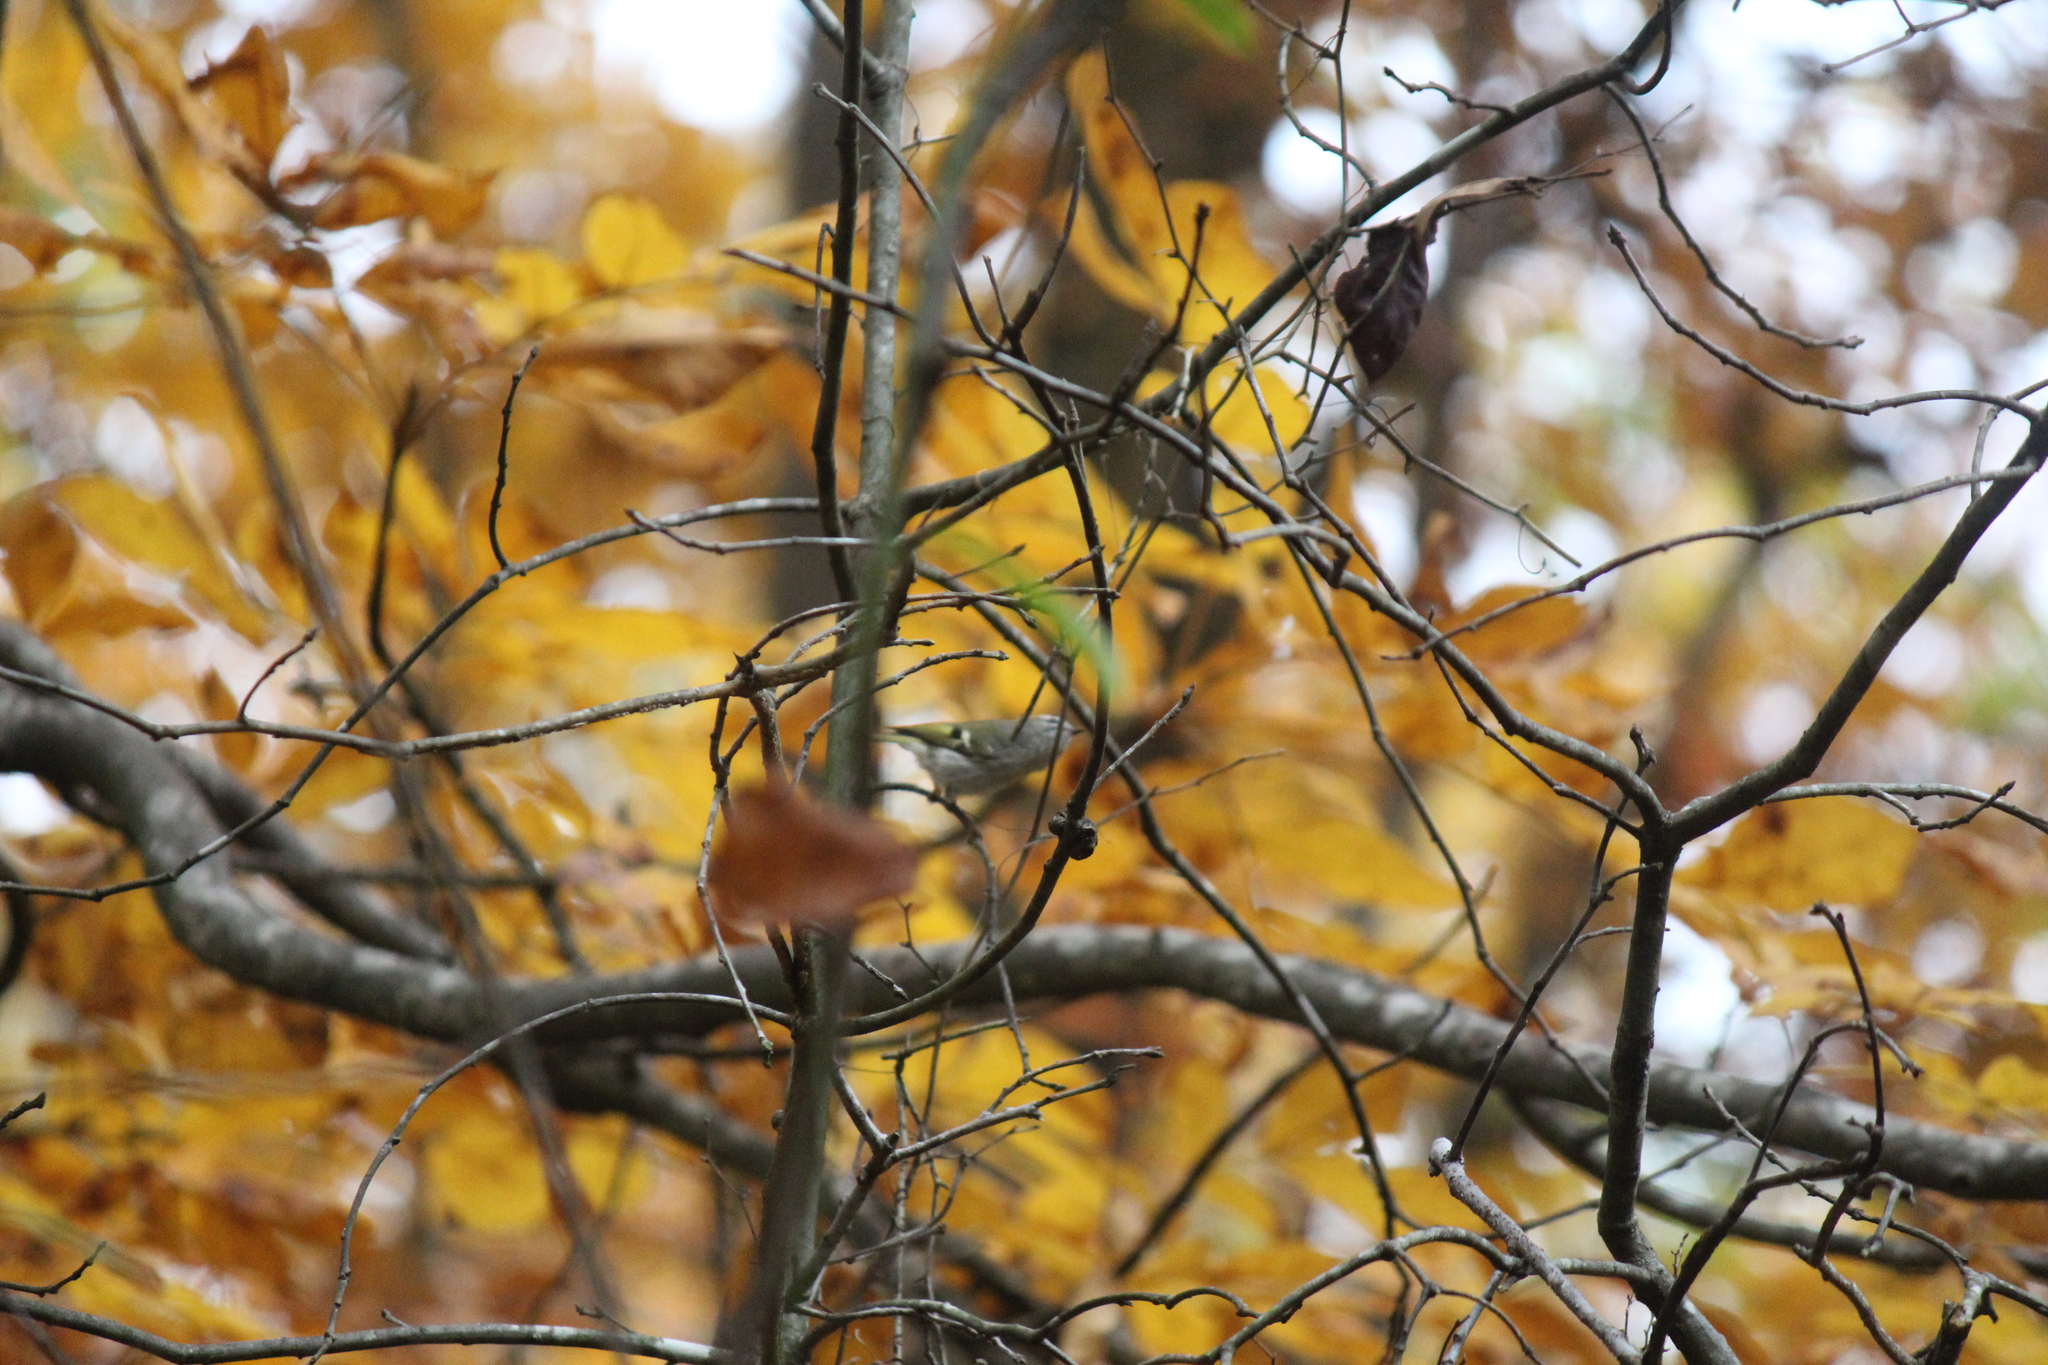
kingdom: Animalia
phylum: Chordata
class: Aves
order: Passeriformes
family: Regulidae
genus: Regulus
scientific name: Regulus satrapa
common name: Golden-crowned kinglet
